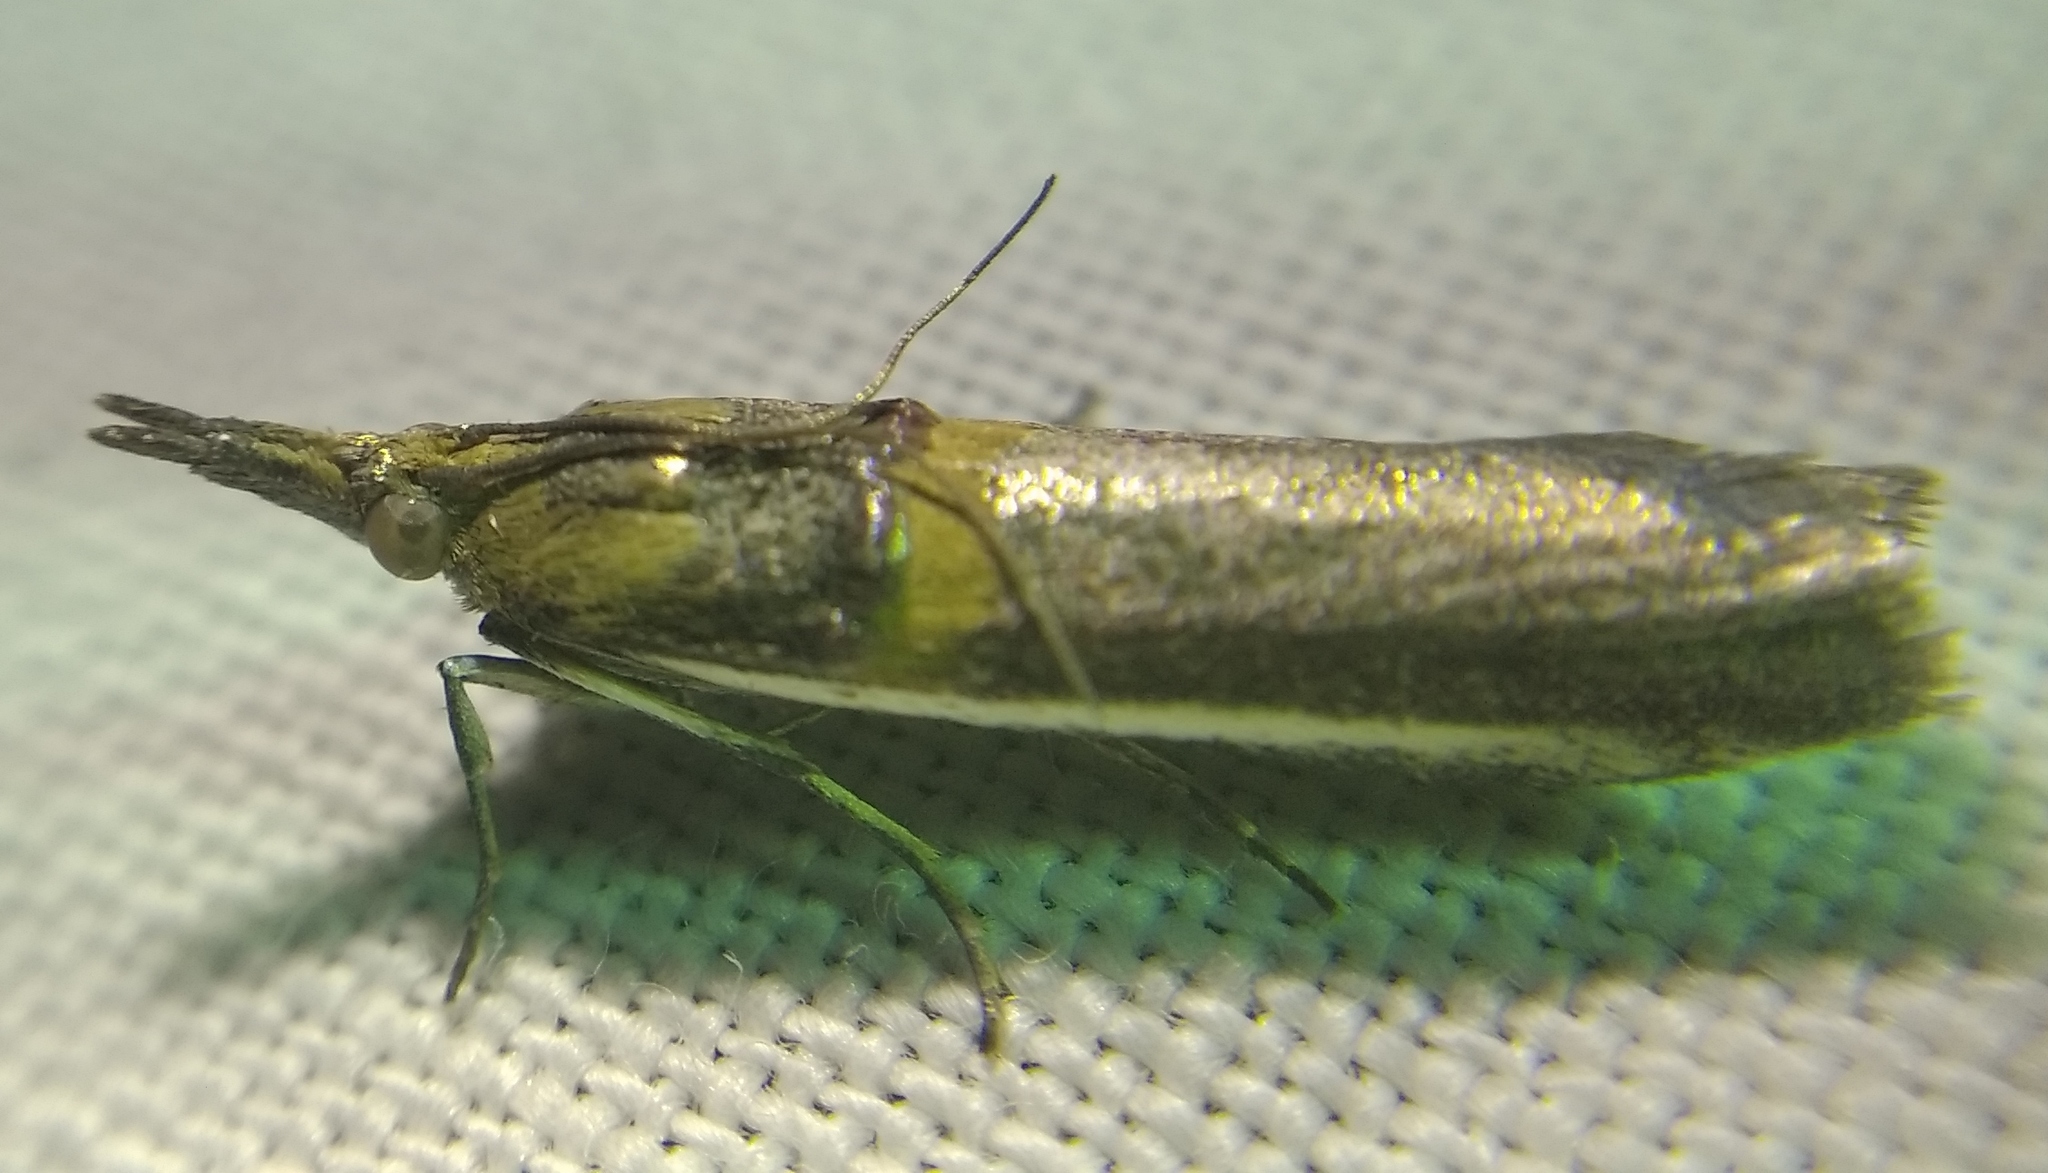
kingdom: Animalia
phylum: Arthropoda
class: Insecta
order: Lepidoptera
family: Pyralidae
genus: Etiella
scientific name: Etiella zinckenella
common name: Gold-banded etiella moth
